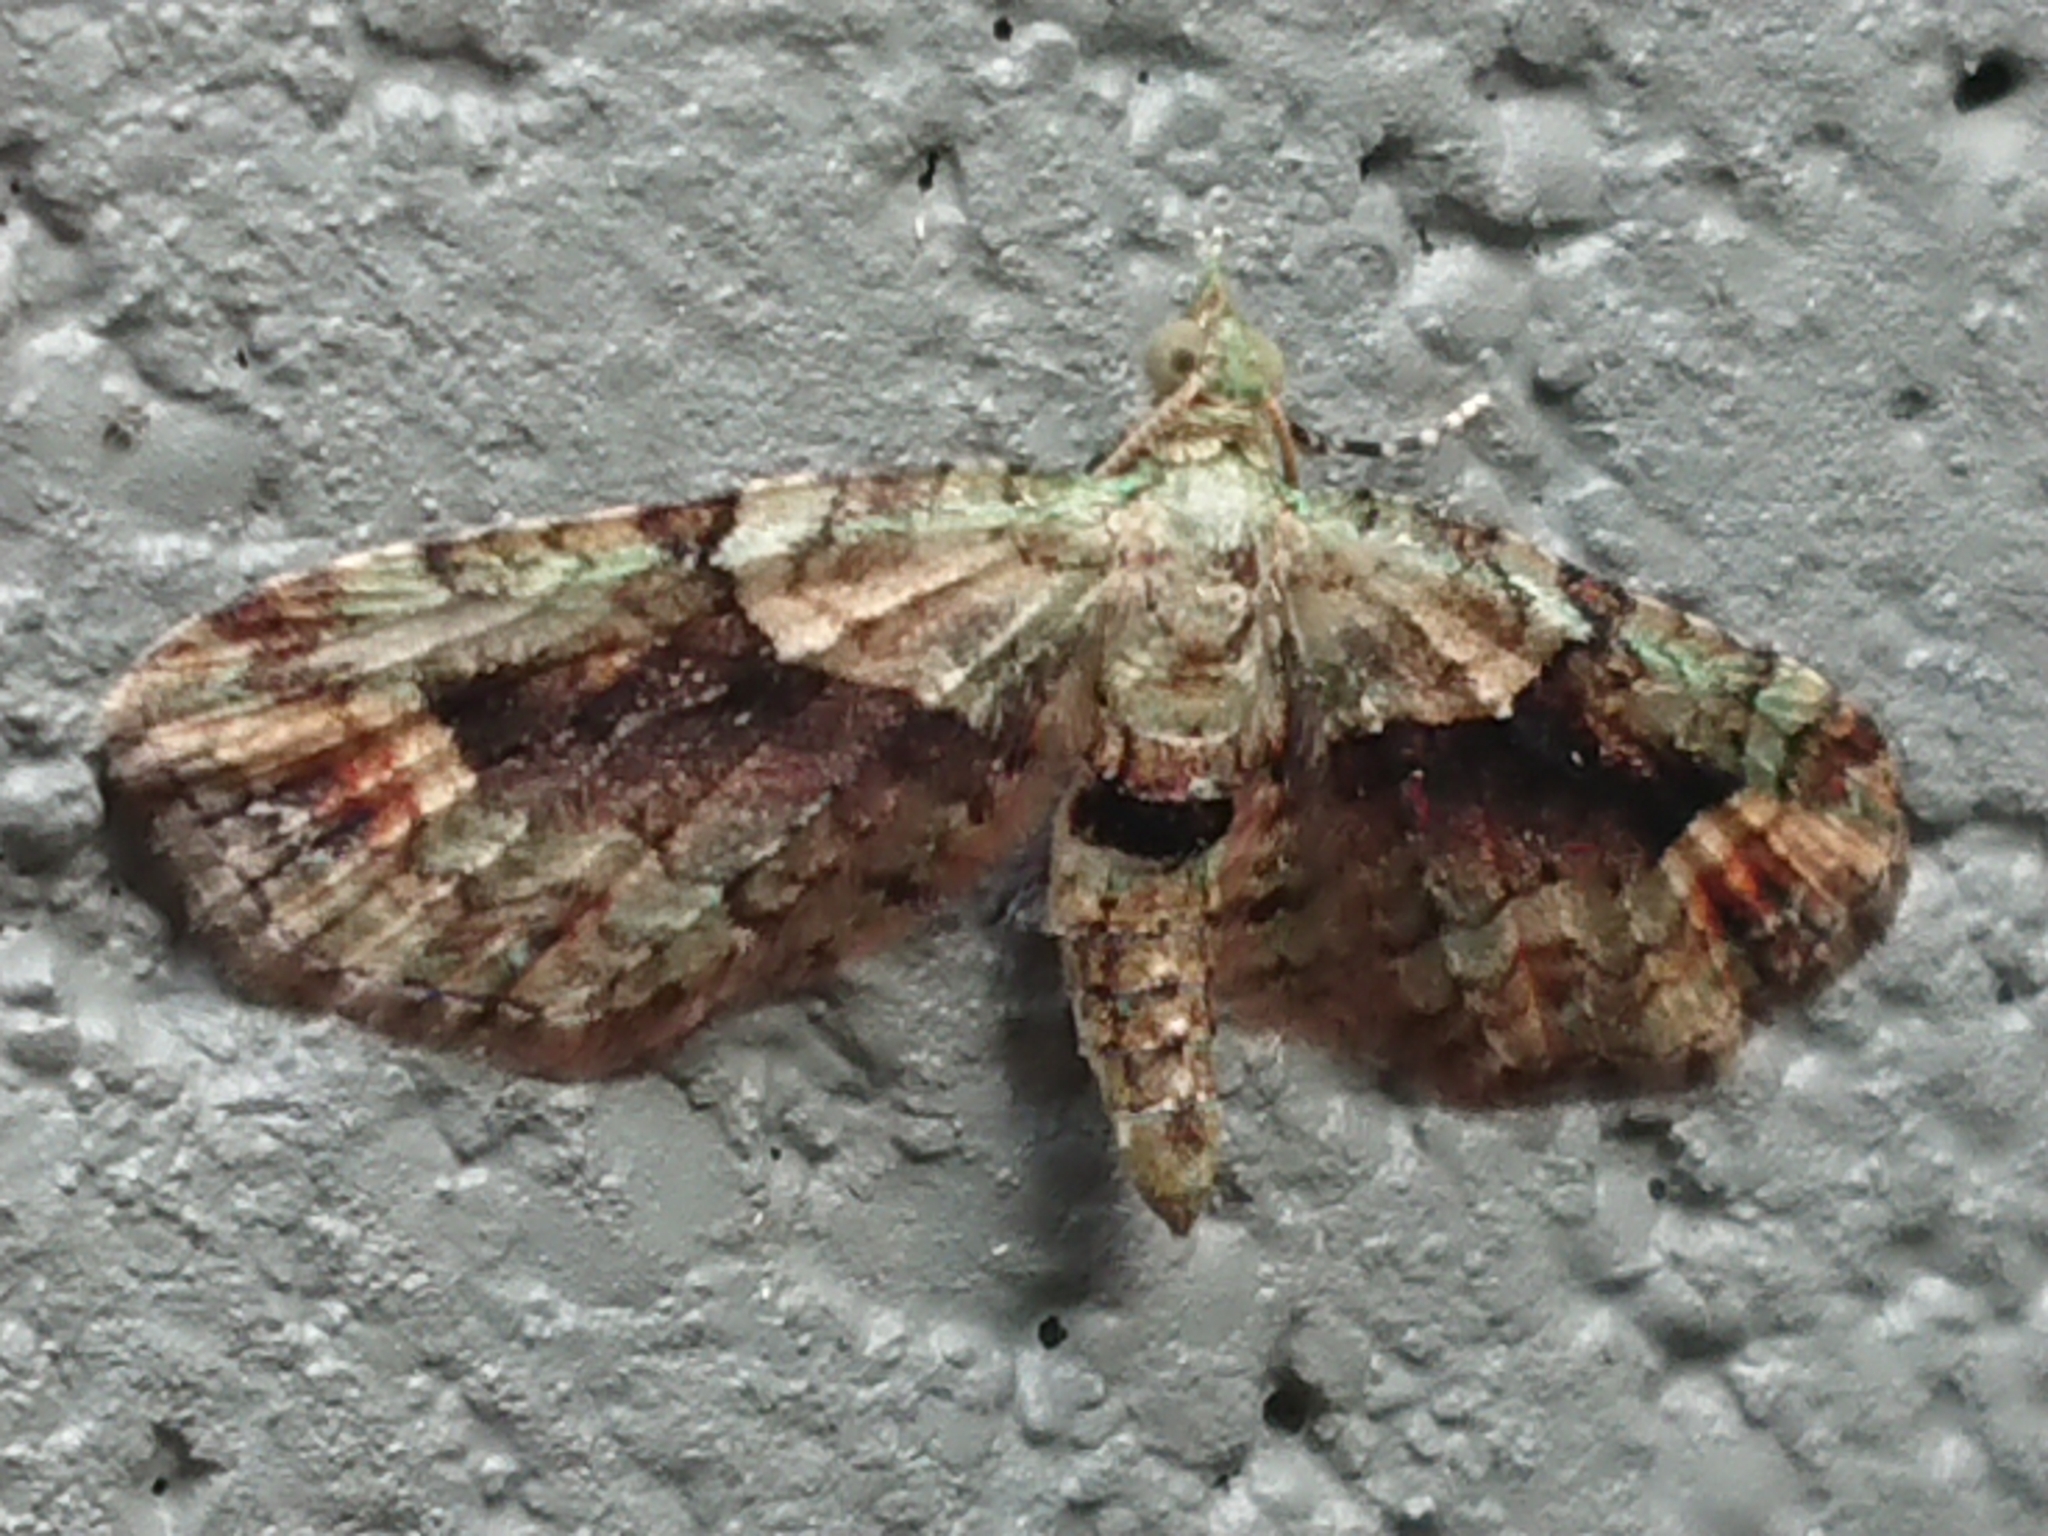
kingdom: Animalia
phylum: Arthropoda
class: Insecta
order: Lepidoptera
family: Geometridae
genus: Idaea
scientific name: Idaea mutanda
